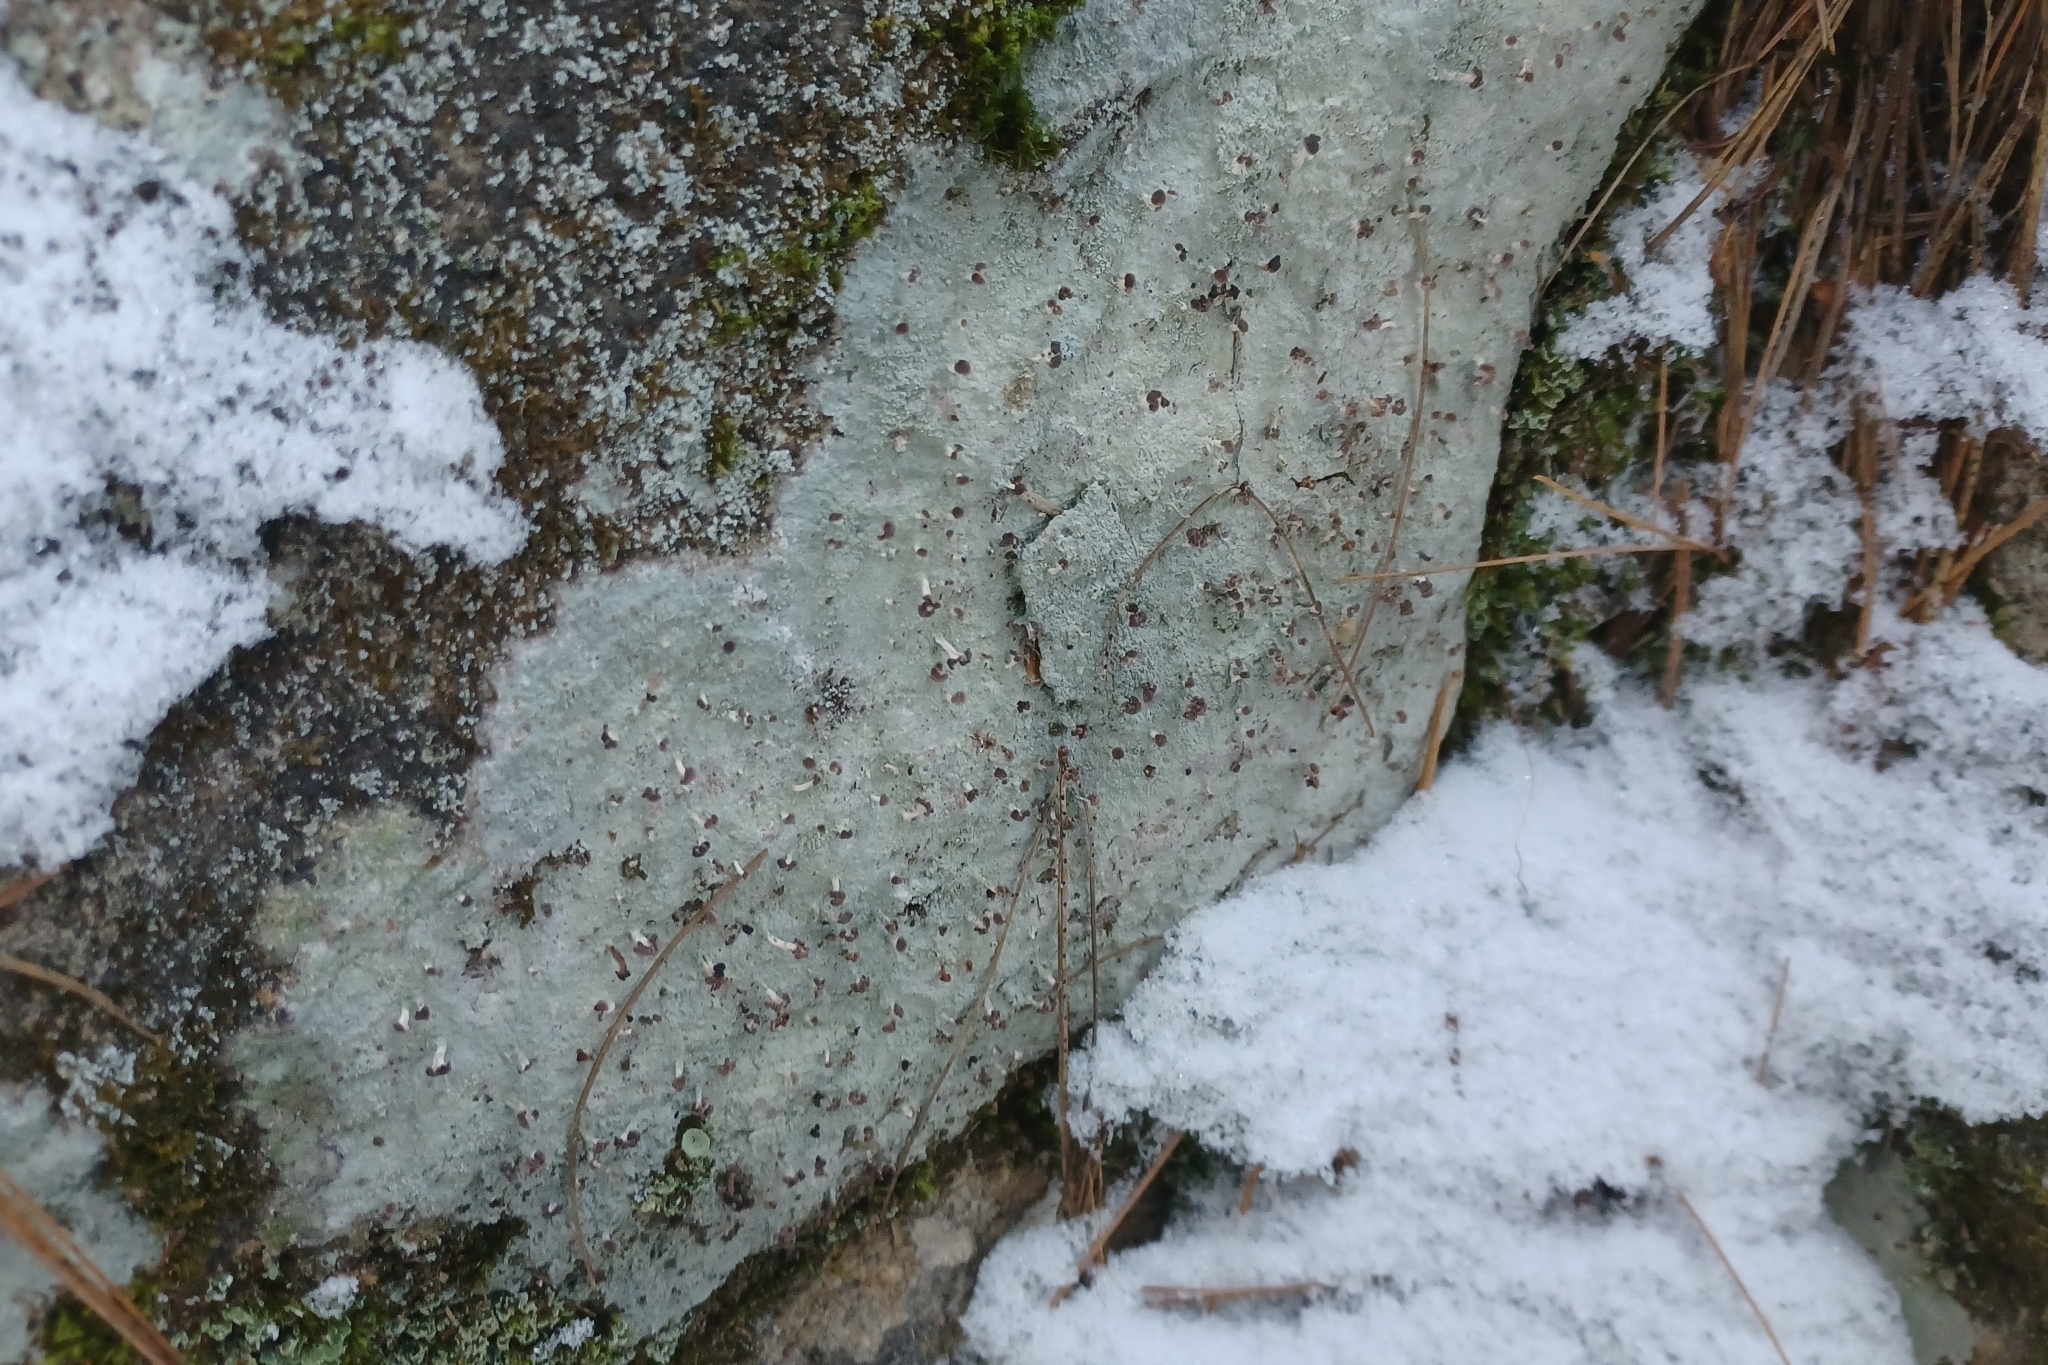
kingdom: Fungi
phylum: Ascomycota
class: Lecanoromycetes
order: Baeomycetales
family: Baeomycetaceae
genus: Baeomyces
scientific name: Baeomyces rufus
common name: Brown beret lichen
